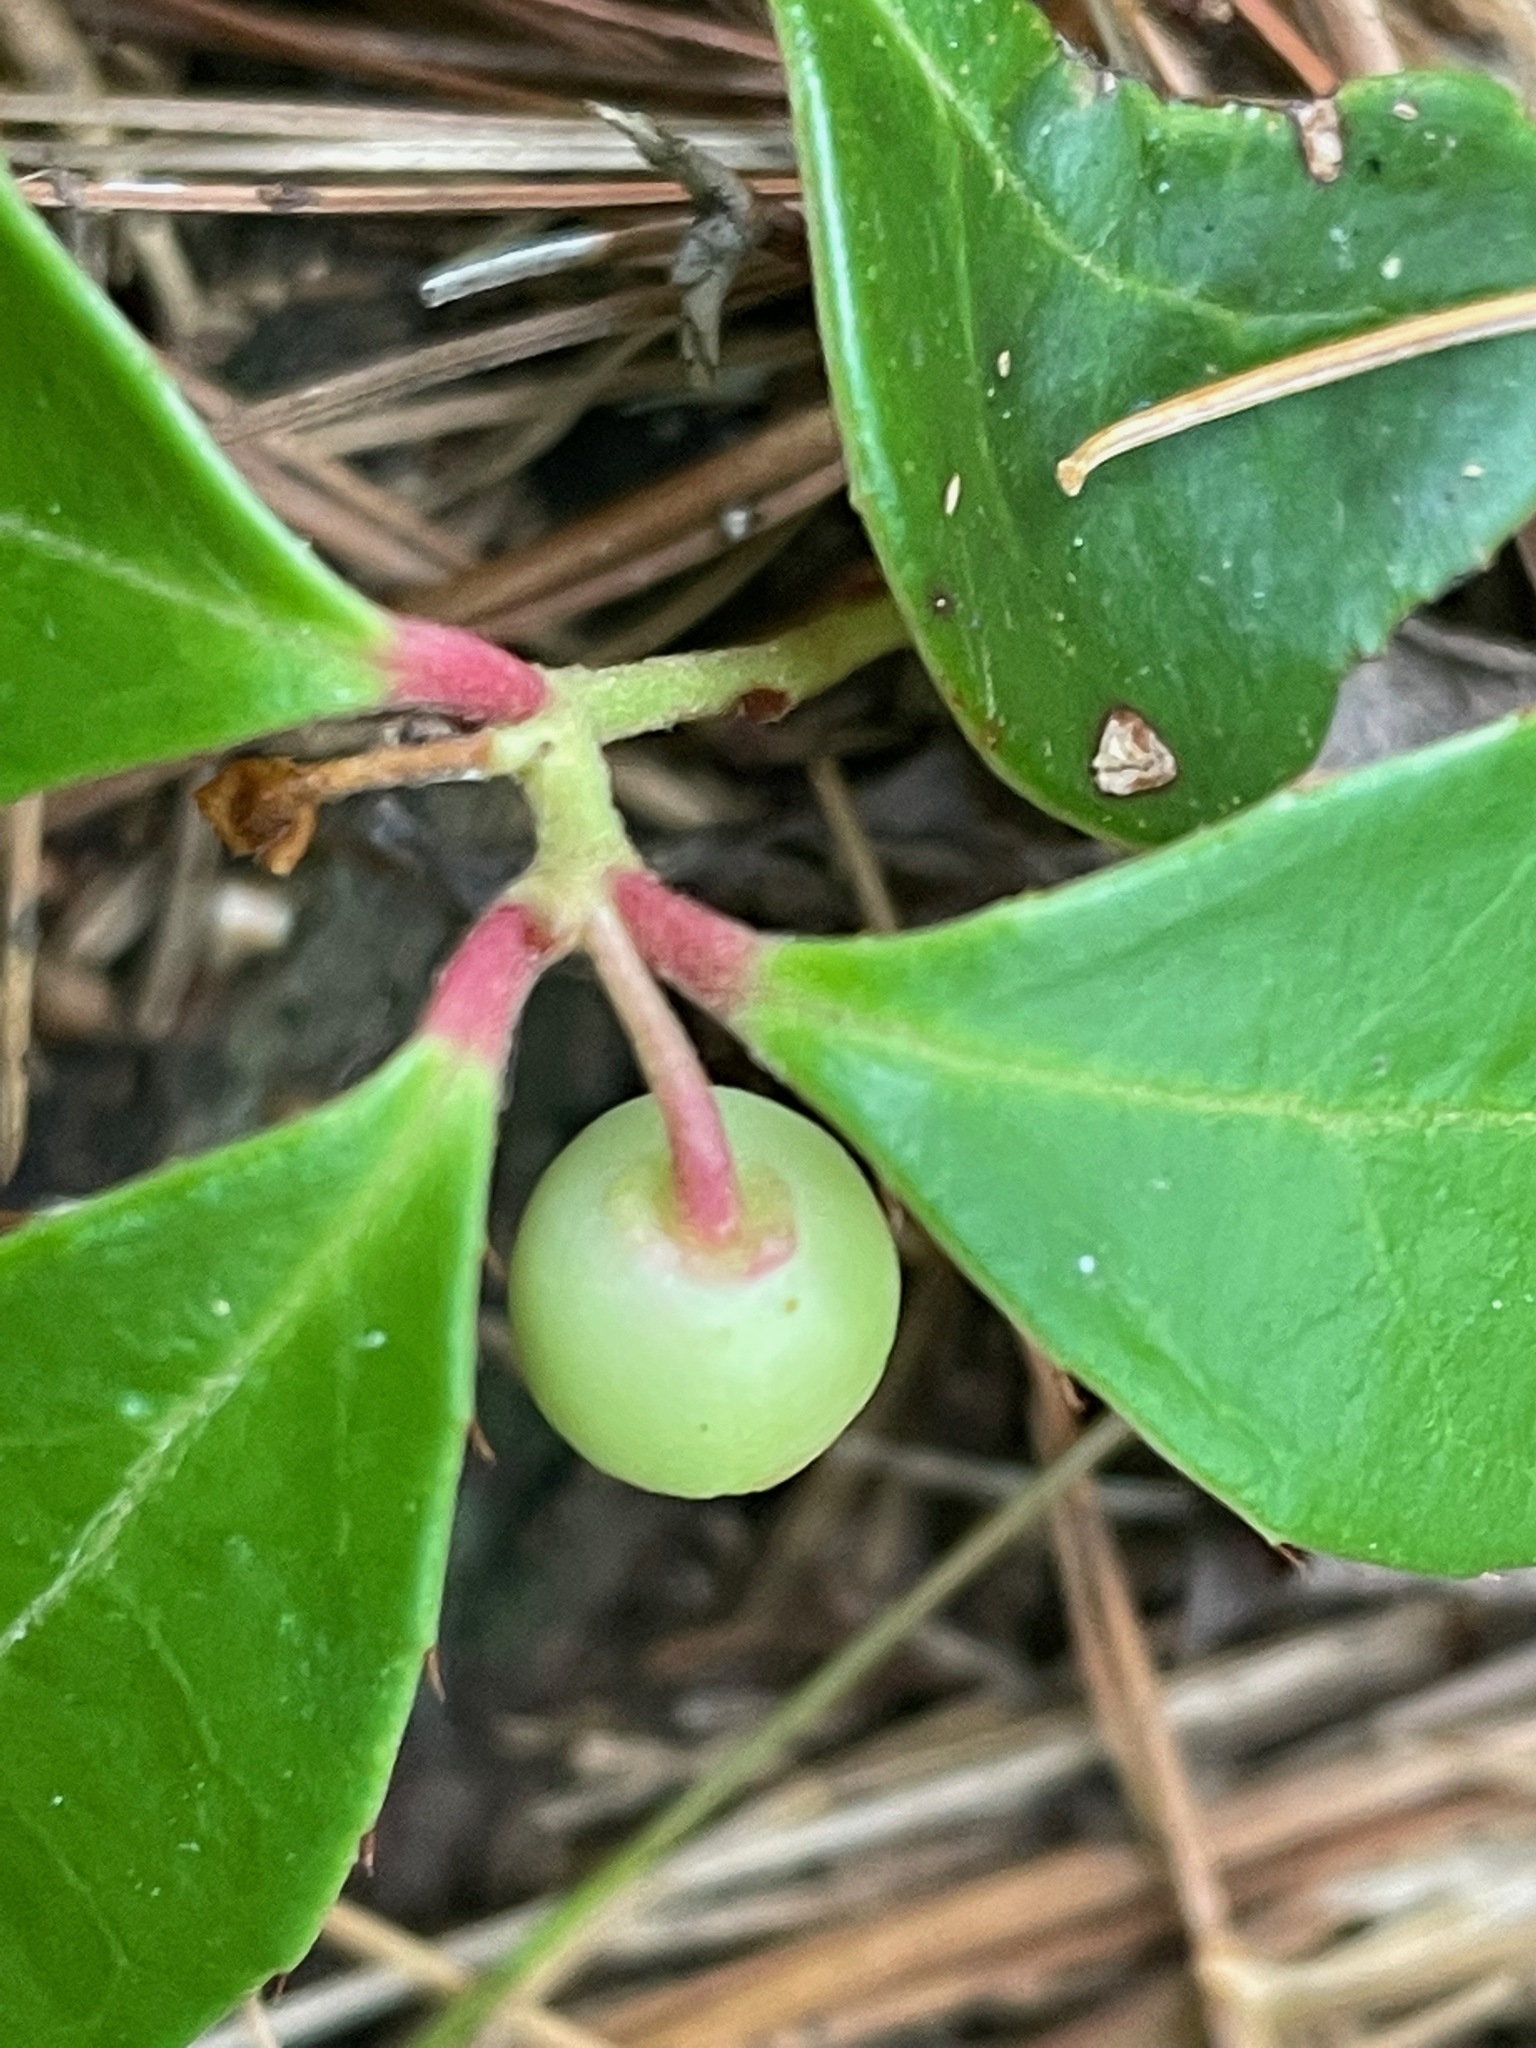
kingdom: Plantae
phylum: Tracheophyta
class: Magnoliopsida
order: Ericales
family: Ericaceae
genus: Gaultheria
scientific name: Gaultheria procumbens
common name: Checkerberry
